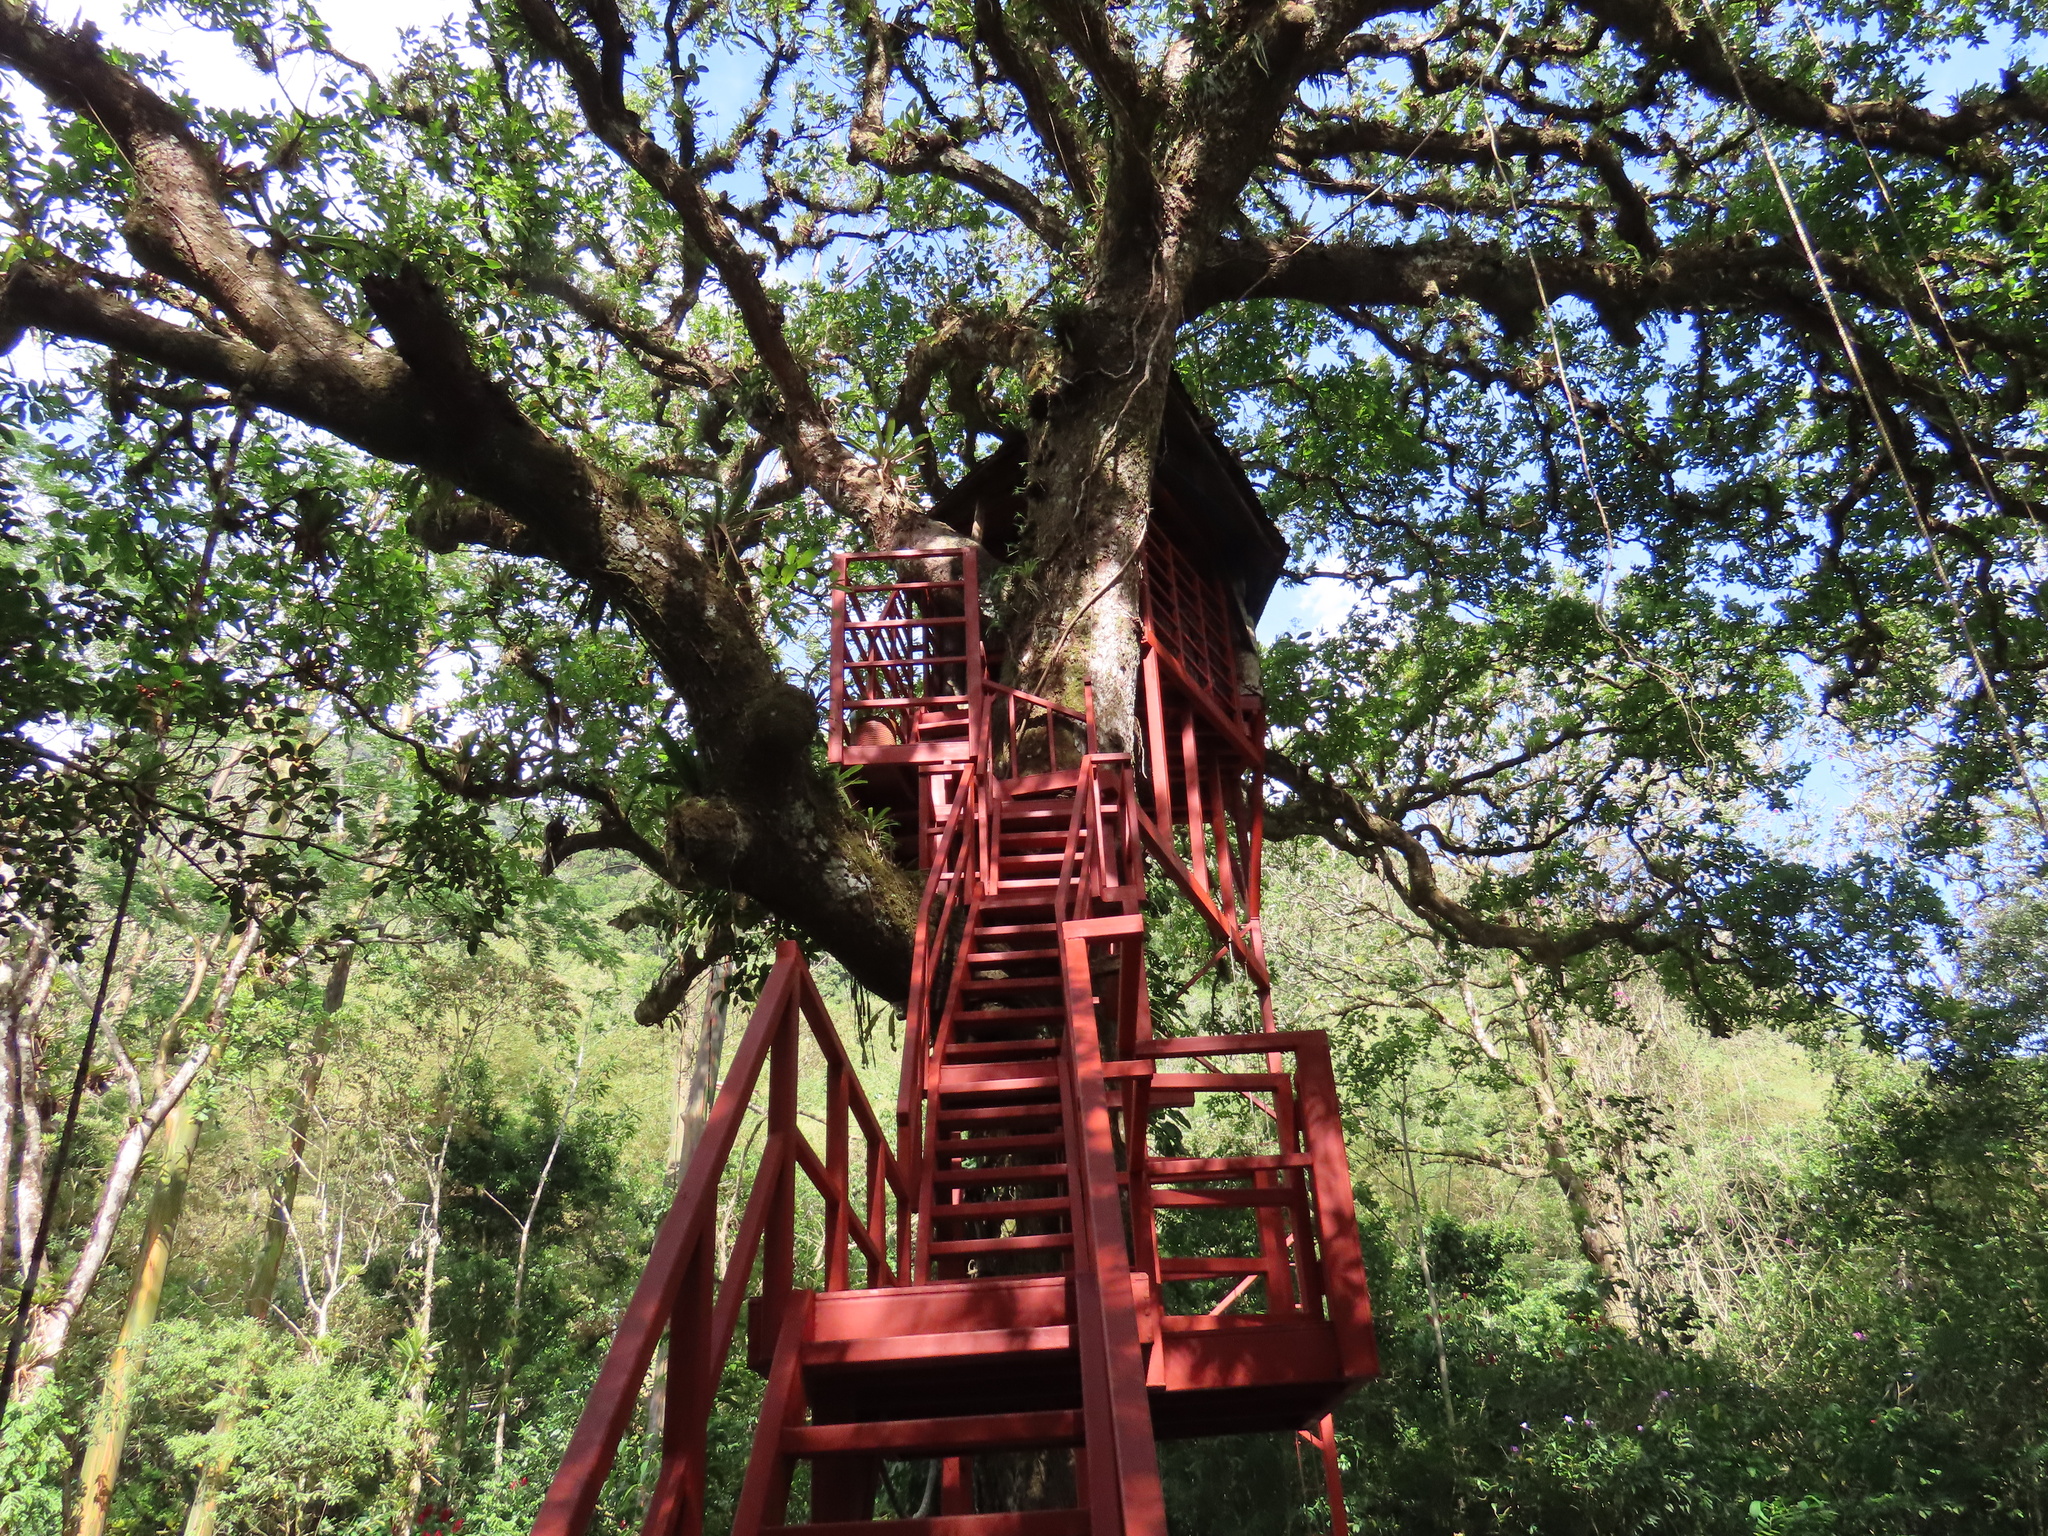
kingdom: Animalia
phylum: Chordata
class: Aves
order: Psittaciformes
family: Psittacidae
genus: Brotogeris
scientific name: Brotogeris jugularis
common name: Orange-chinned parakeet
